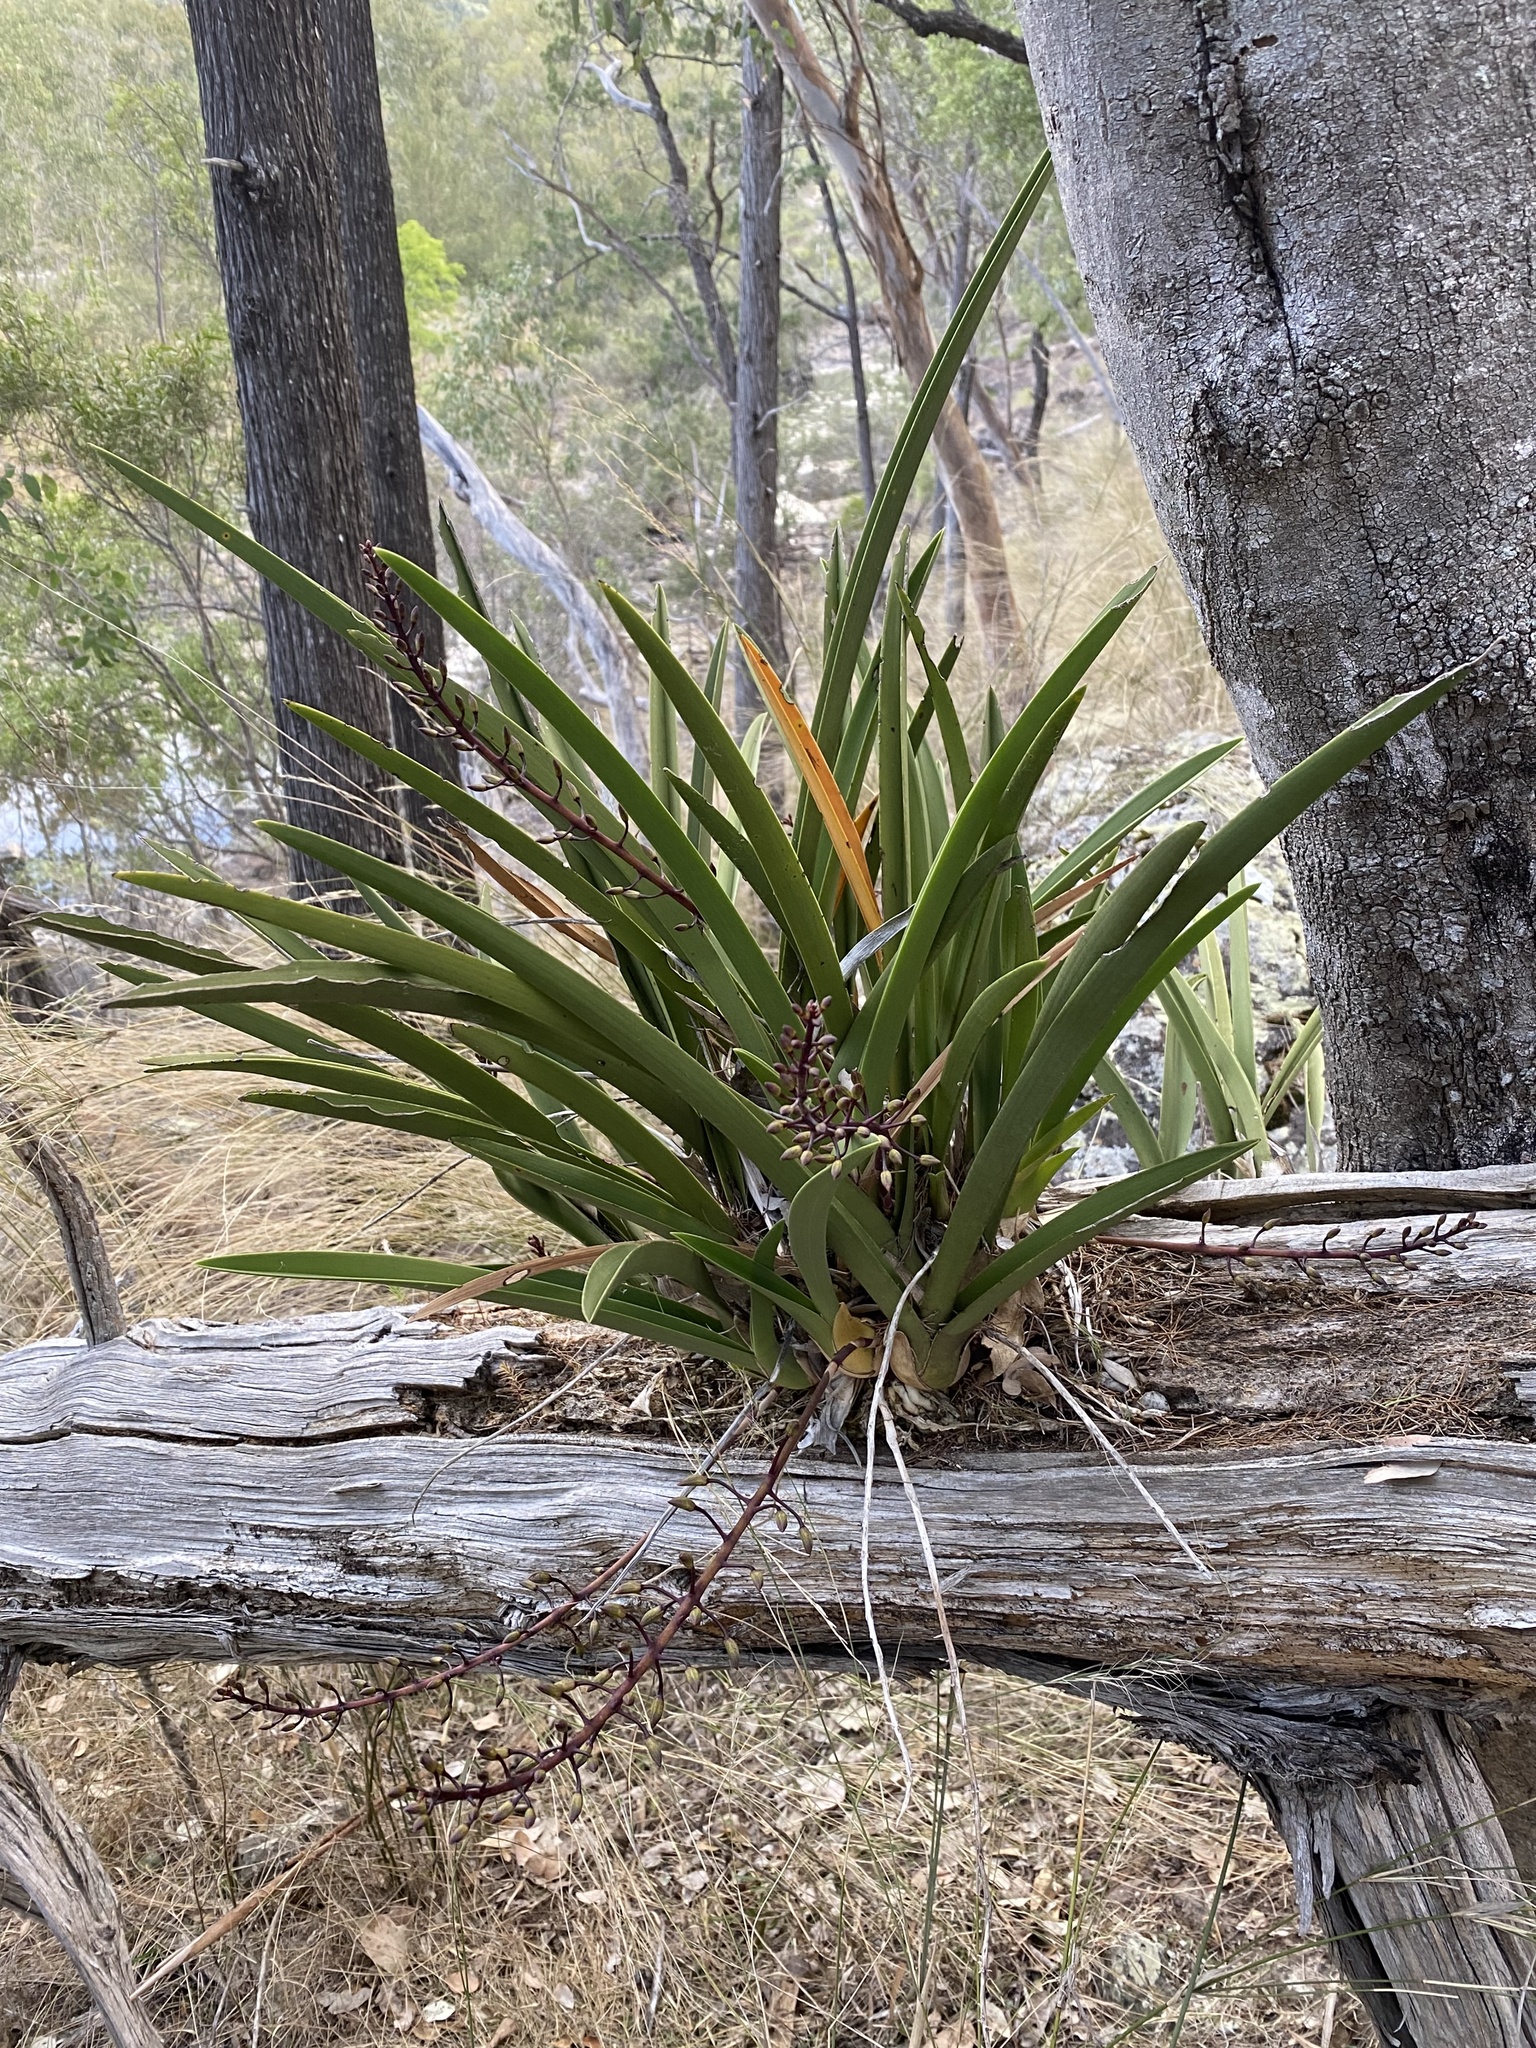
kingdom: Plantae
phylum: Tracheophyta
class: Liliopsida
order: Asparagales
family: Orchidaceae
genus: Cymbidium
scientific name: Cymbidium canaliculatum
